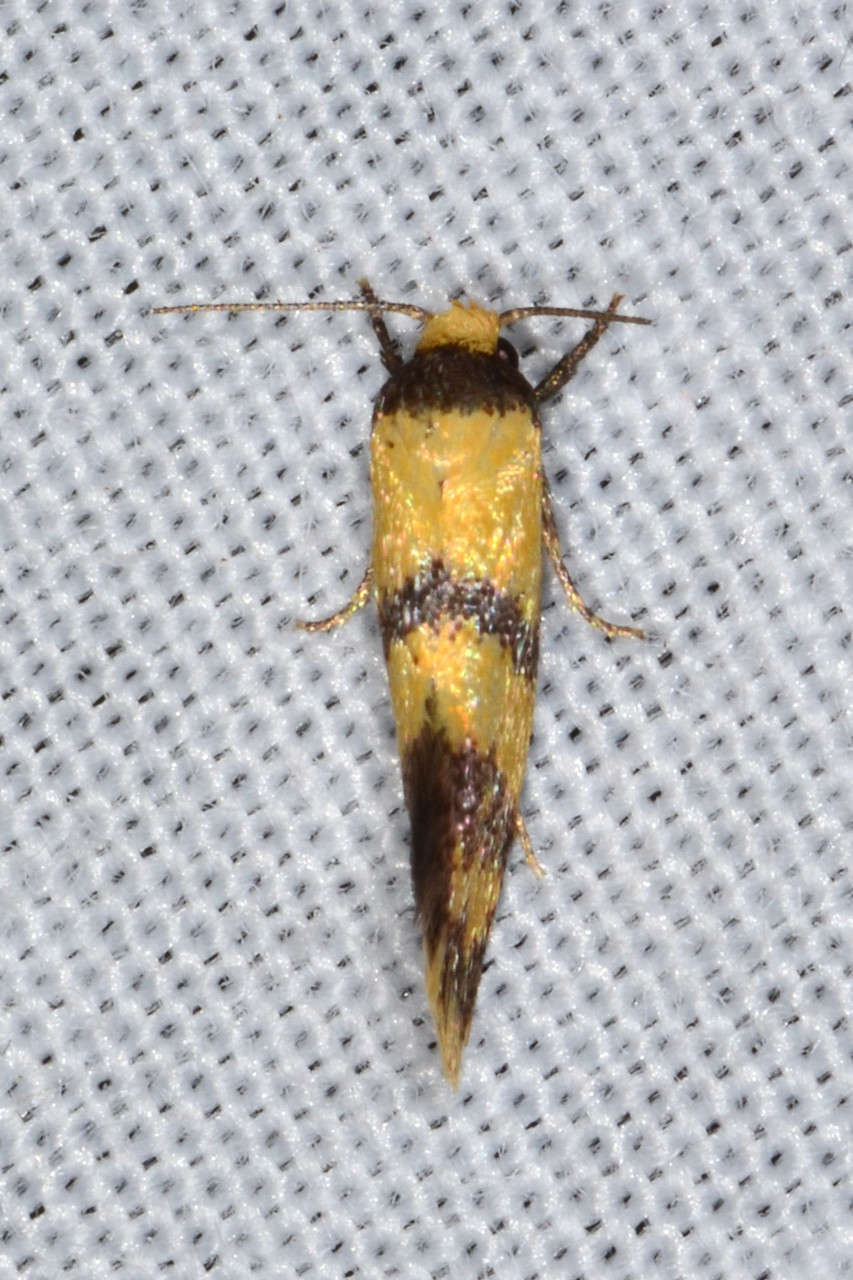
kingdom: Animalia
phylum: Arthropoda
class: Insecta
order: Lepidoptera
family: Oecophoridae
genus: Psaroxantha
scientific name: Psaroxantha calligenes
